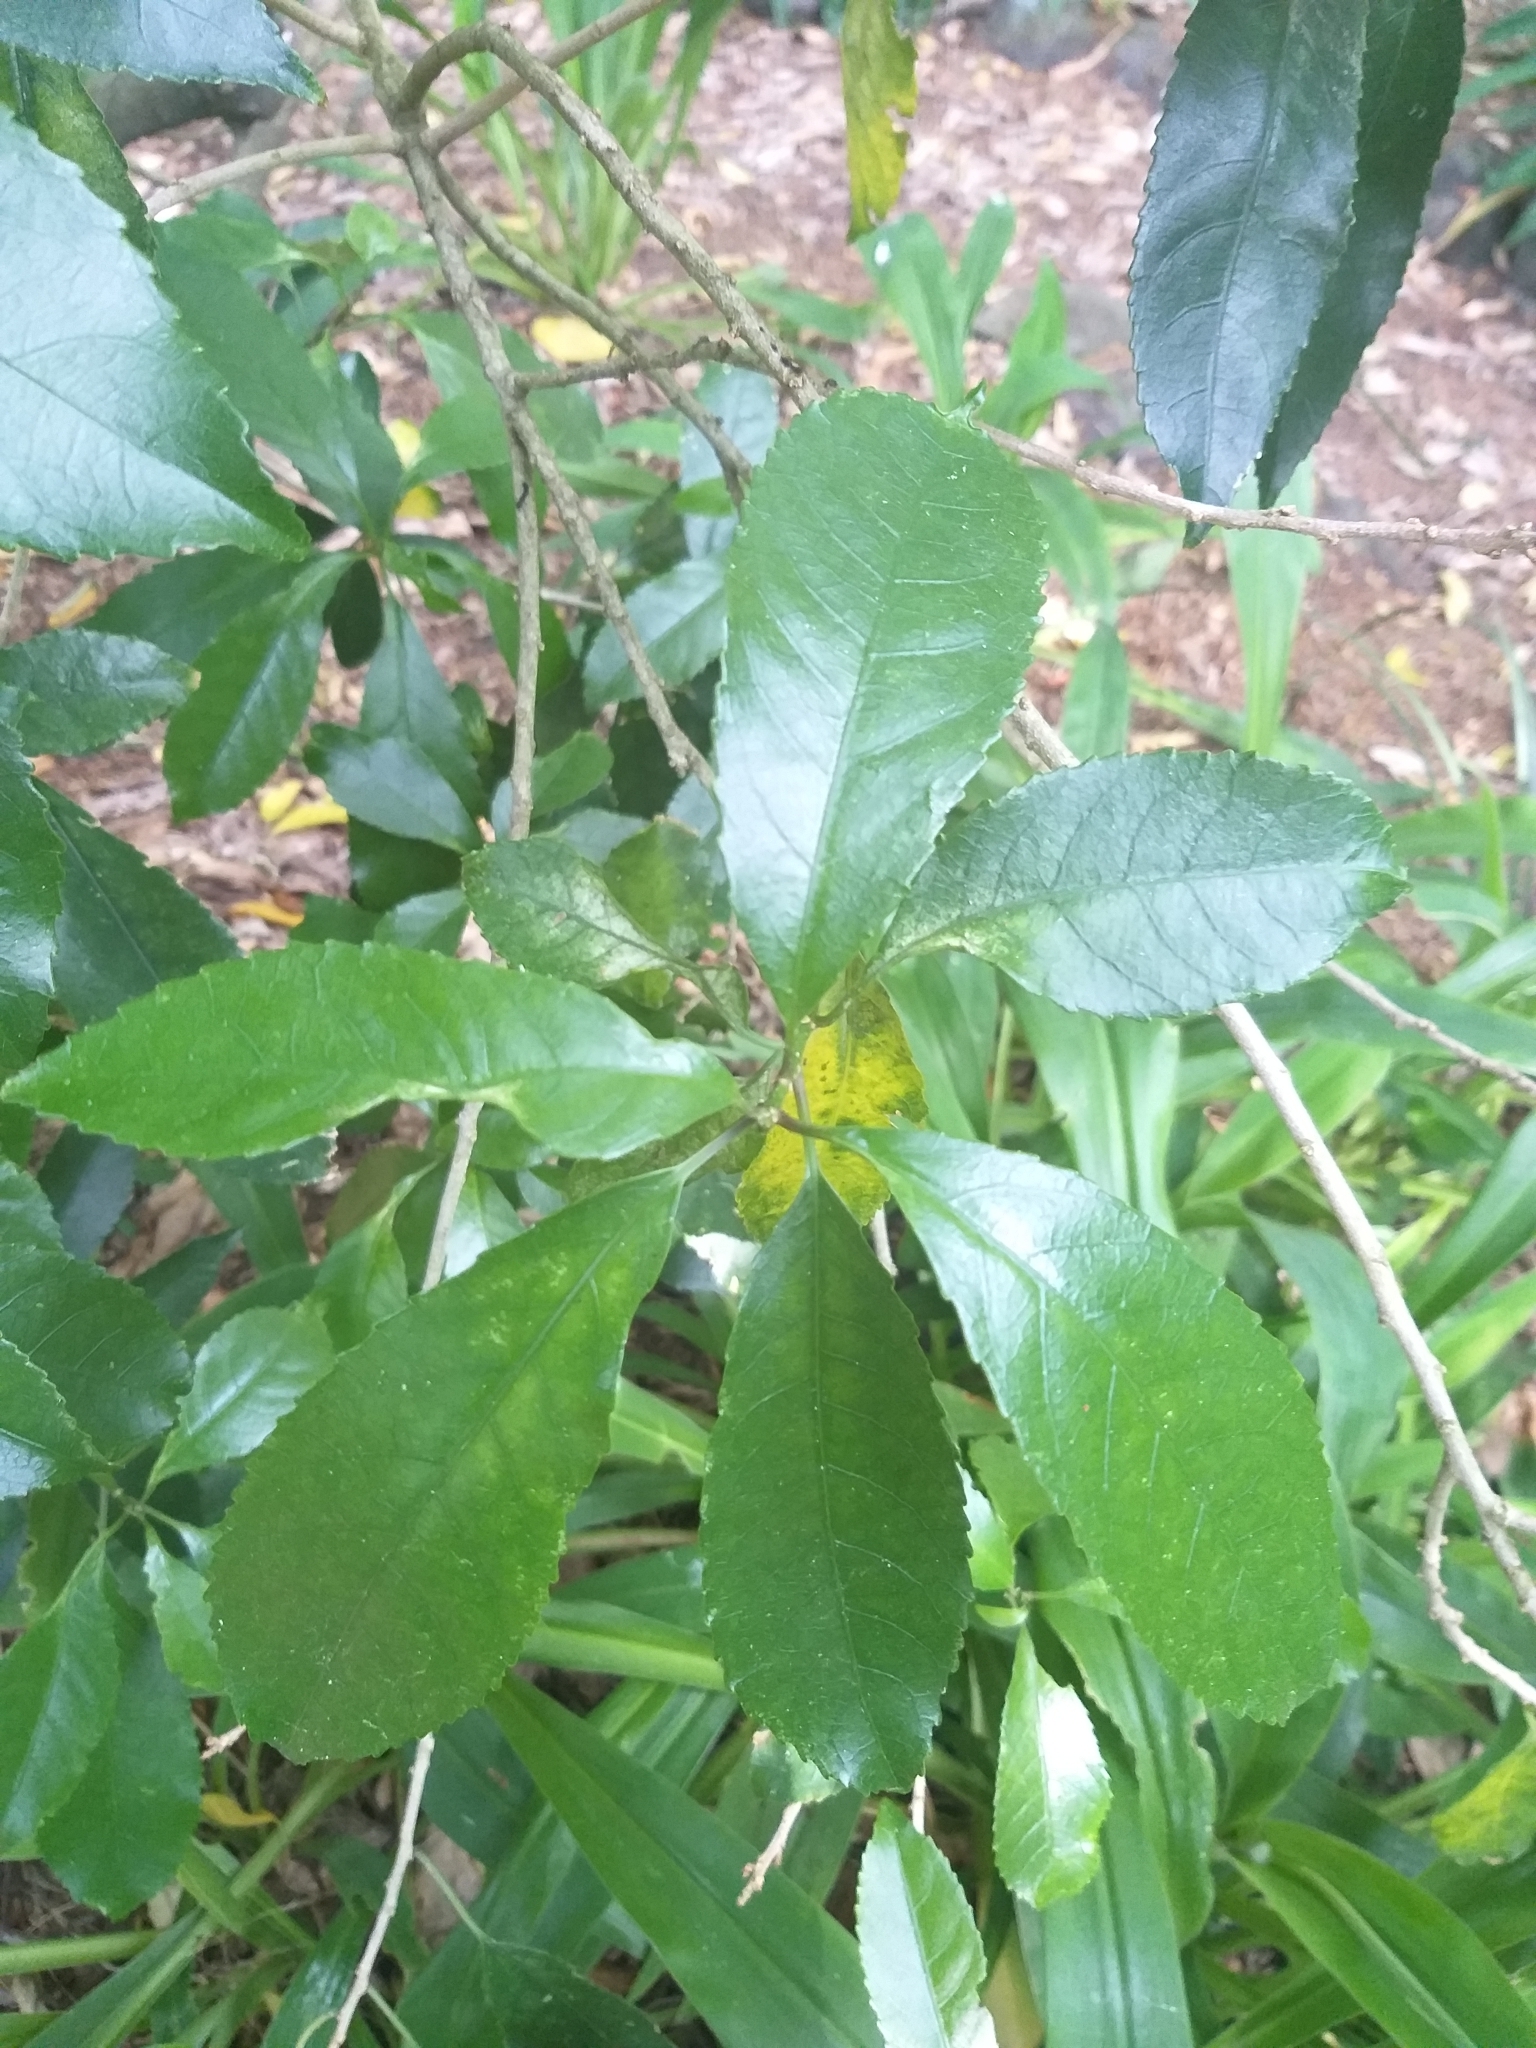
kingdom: Plantae
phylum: Tracheophyta
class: Magnoliopsida
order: Malpighiales
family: Violaceae
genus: Melicytus
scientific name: Melicytus ramiflorus
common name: Mahoe
